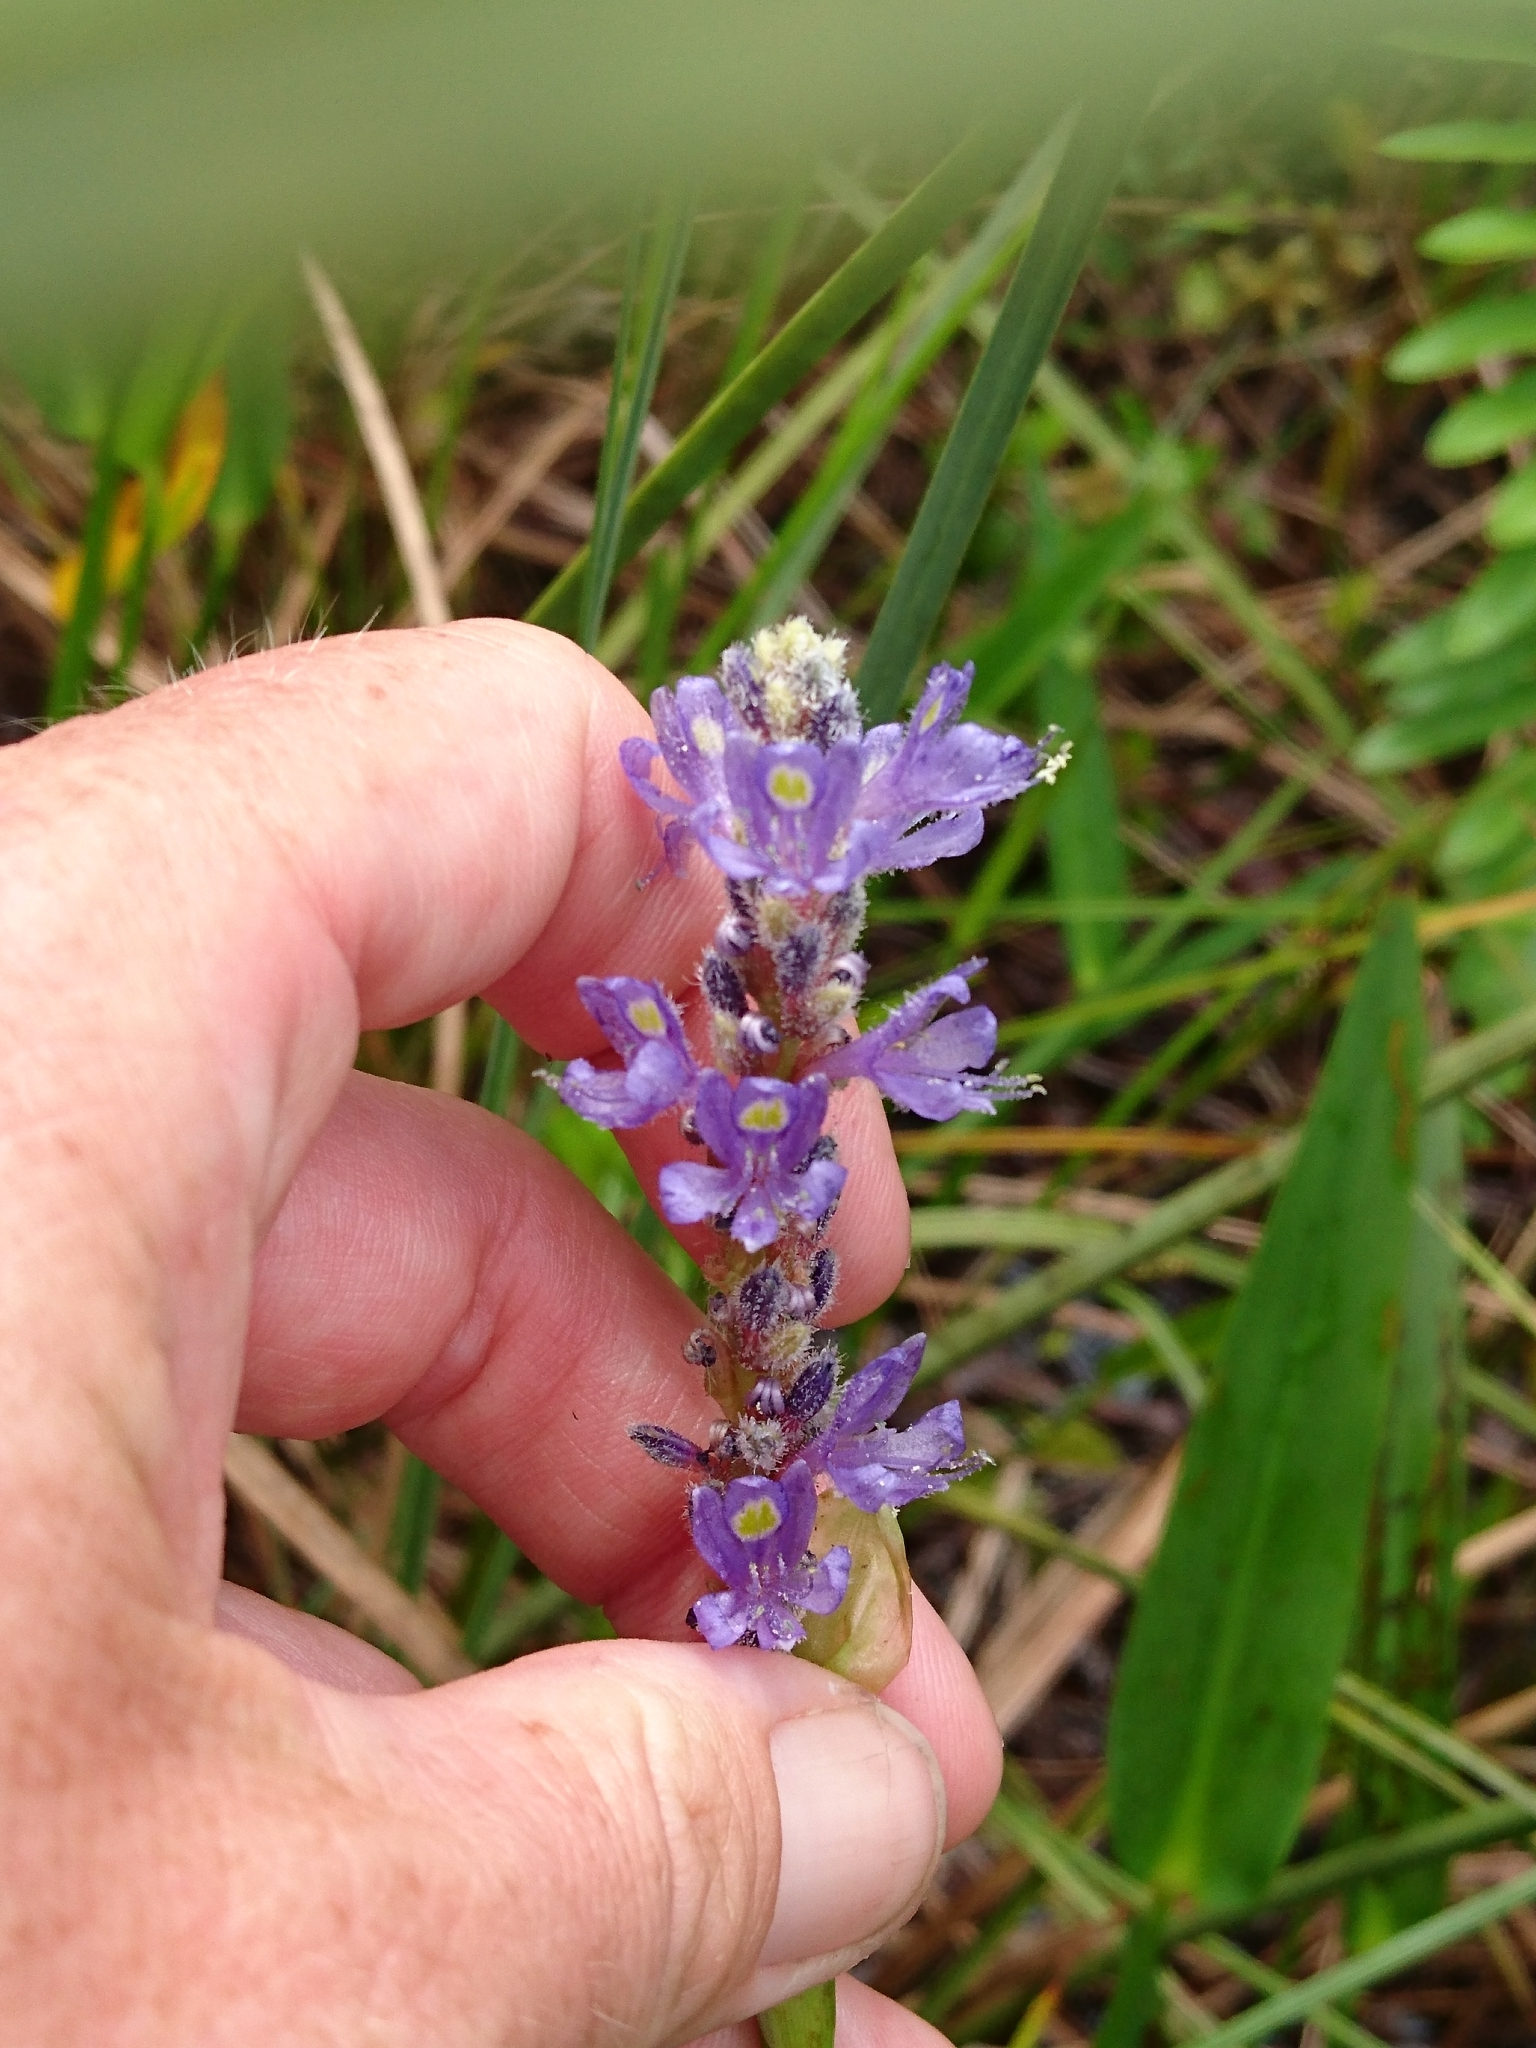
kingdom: Plantae
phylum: Tracheophyta
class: Liliopsida
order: Commelinales
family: Pontederiaceae
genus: Pontederia
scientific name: Pontederia cordata
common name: Pickerelweed
